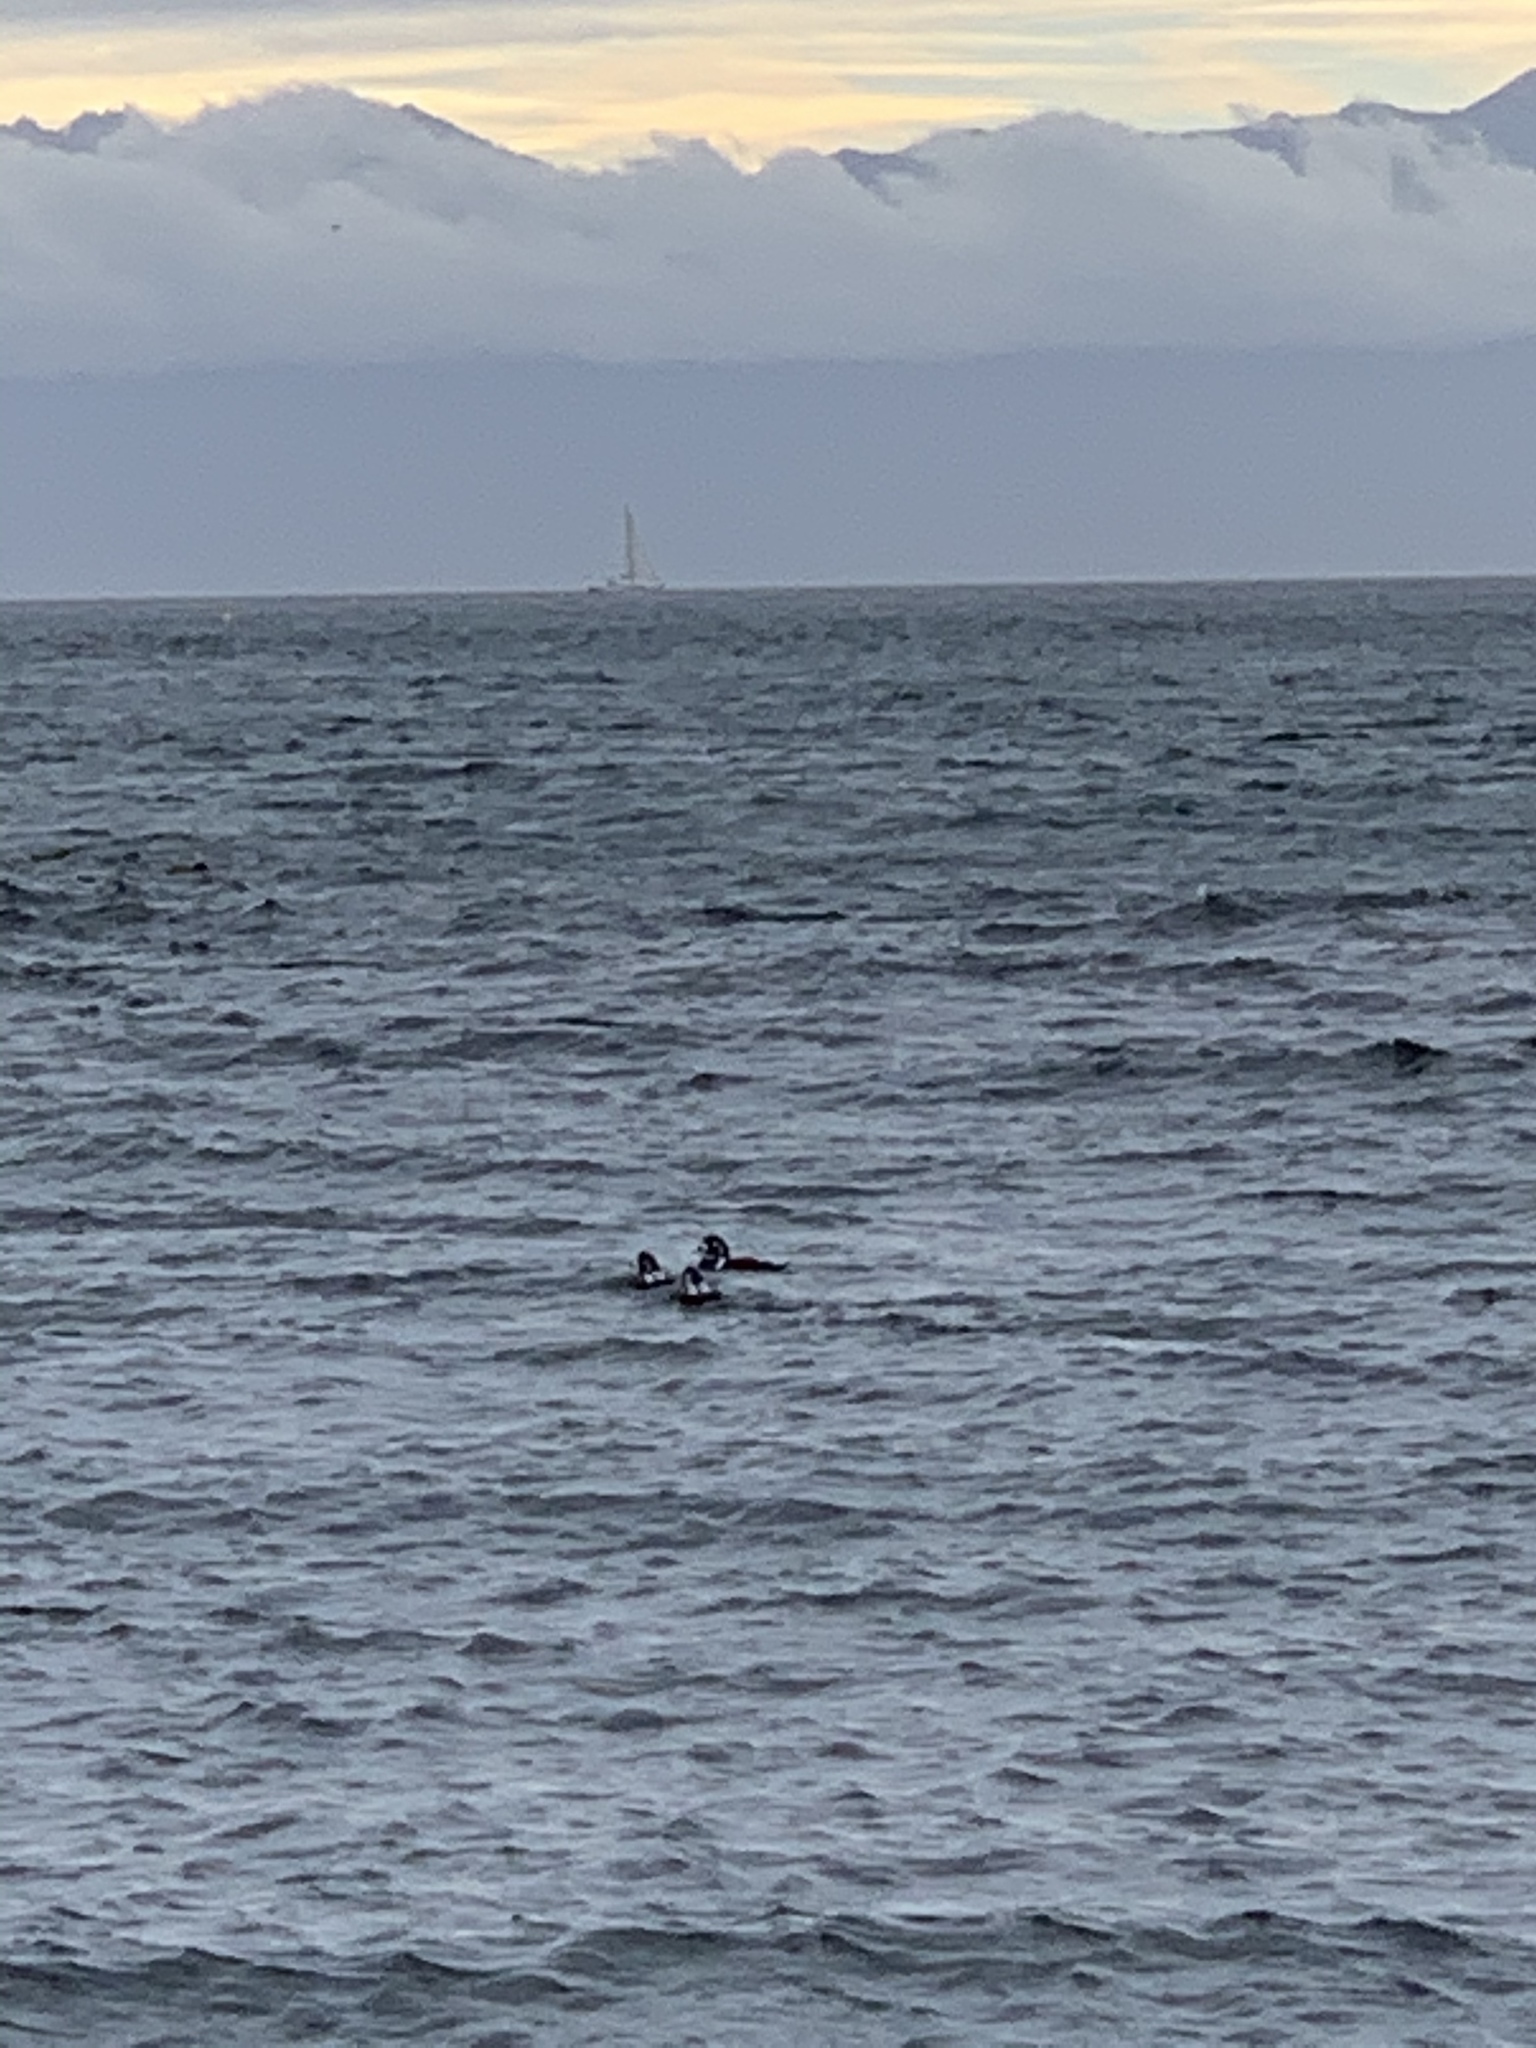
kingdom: Animalia
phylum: Chordata
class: Aves
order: Anseriformes
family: Anatidae
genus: Histrionicus
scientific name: Histrionicus histrionicus
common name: Harlequin duck
